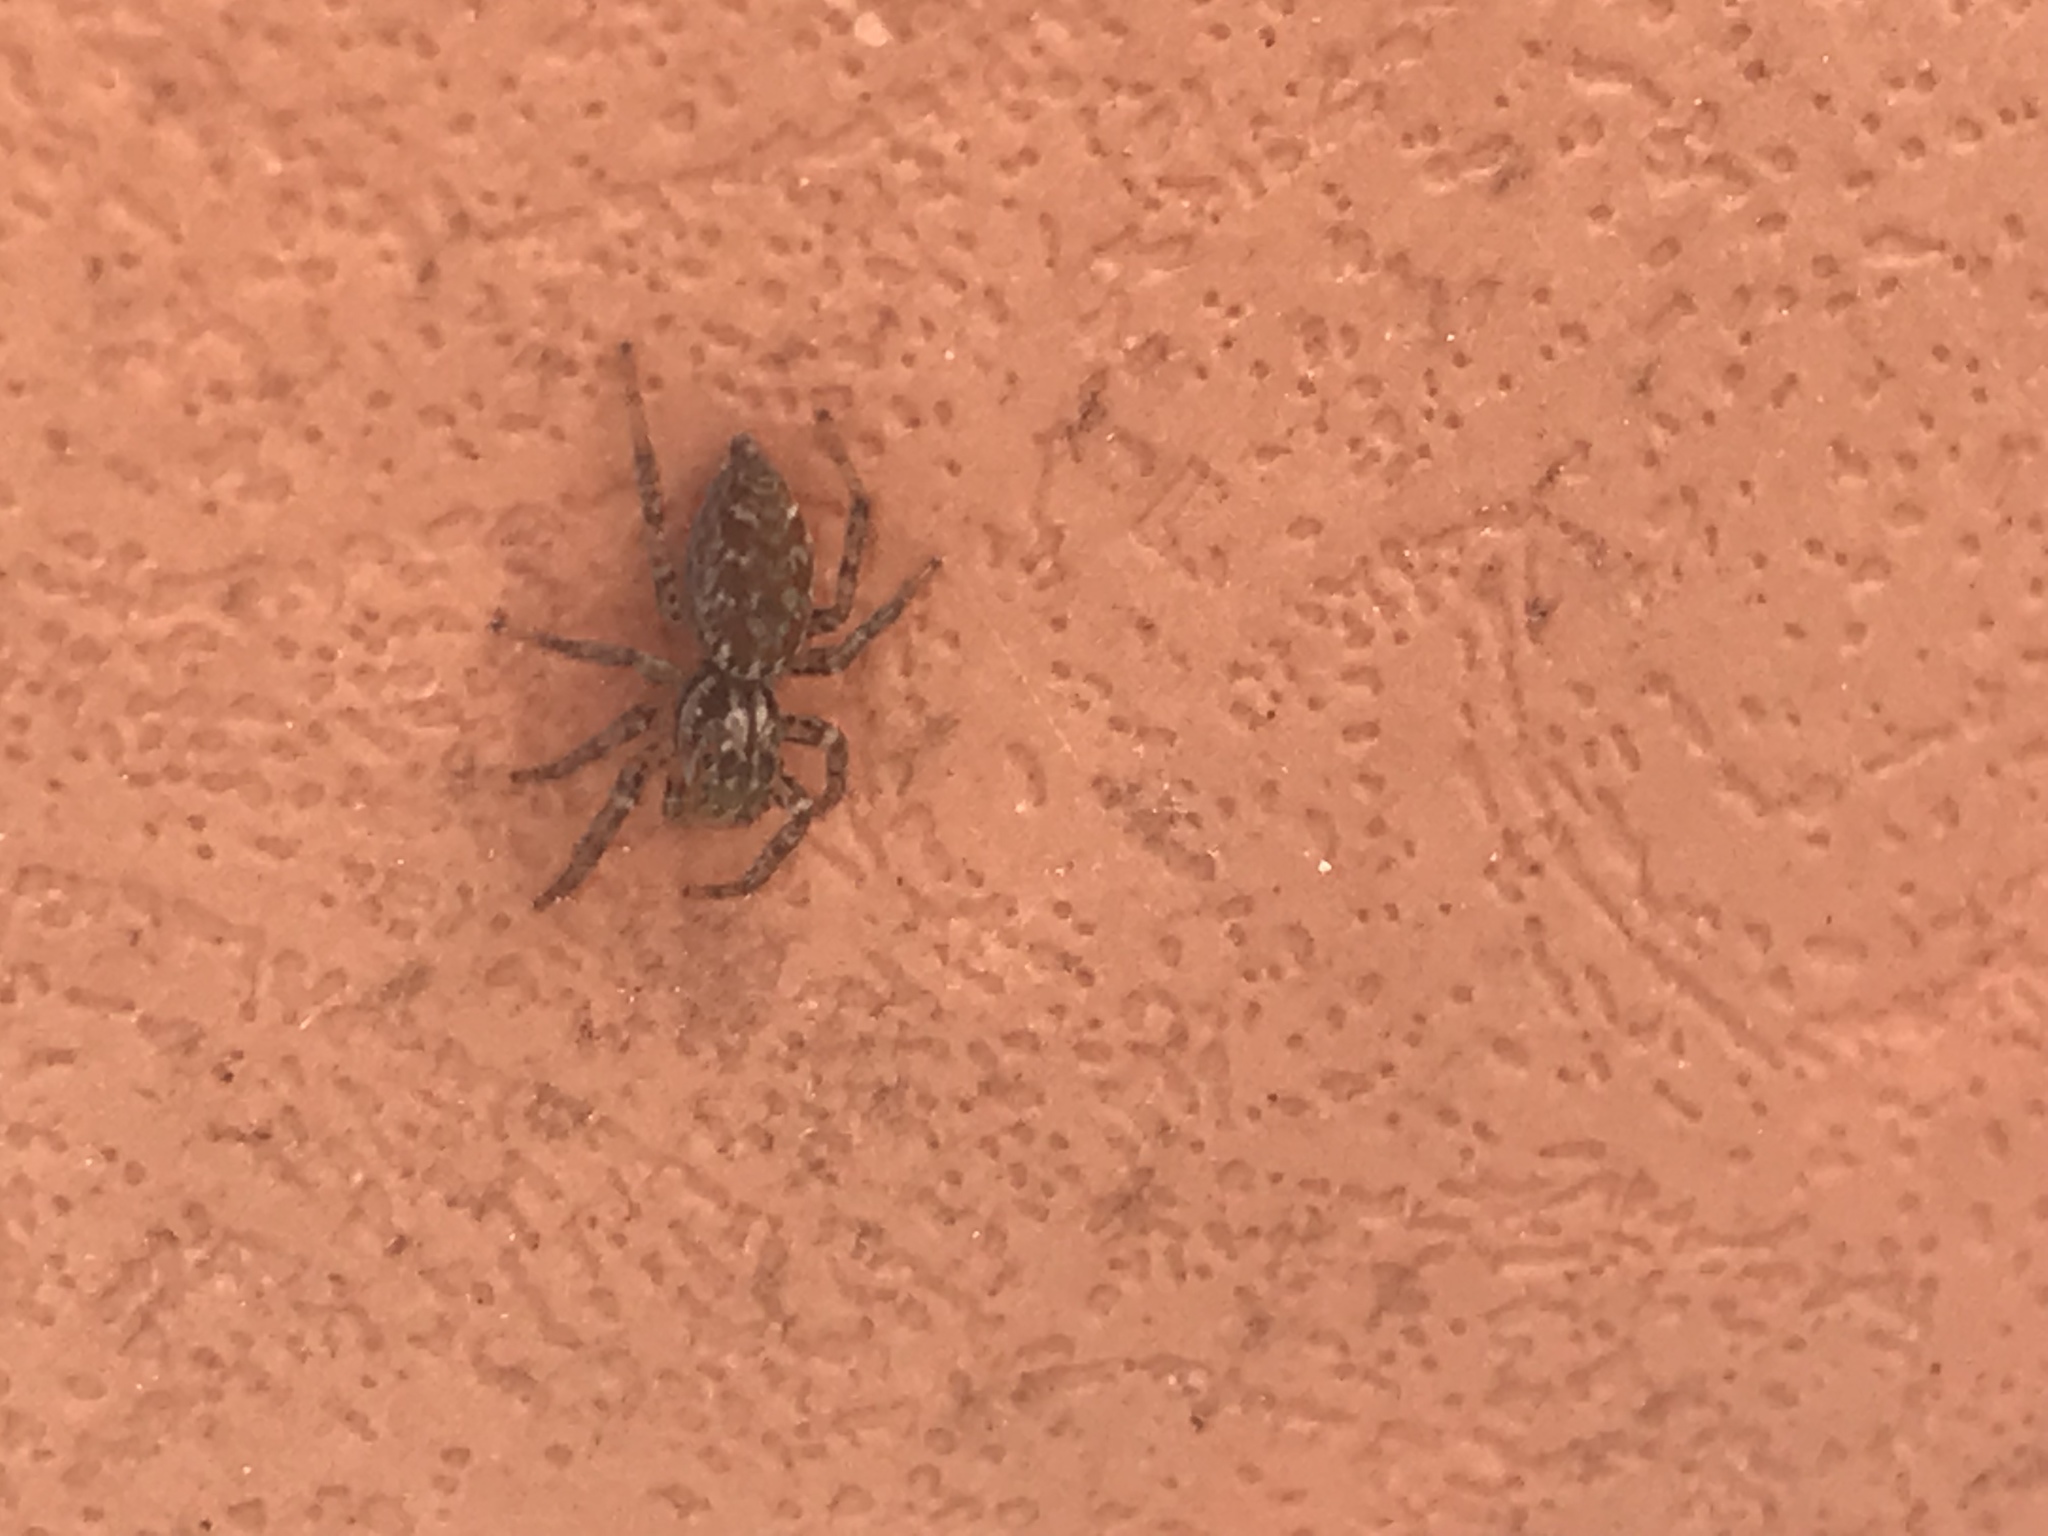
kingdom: Animalia
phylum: Arthropoda
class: Arachnida
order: Araneae
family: Salticidae
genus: Maevia
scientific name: Maevia inclemens
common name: Dimorphic jumper
